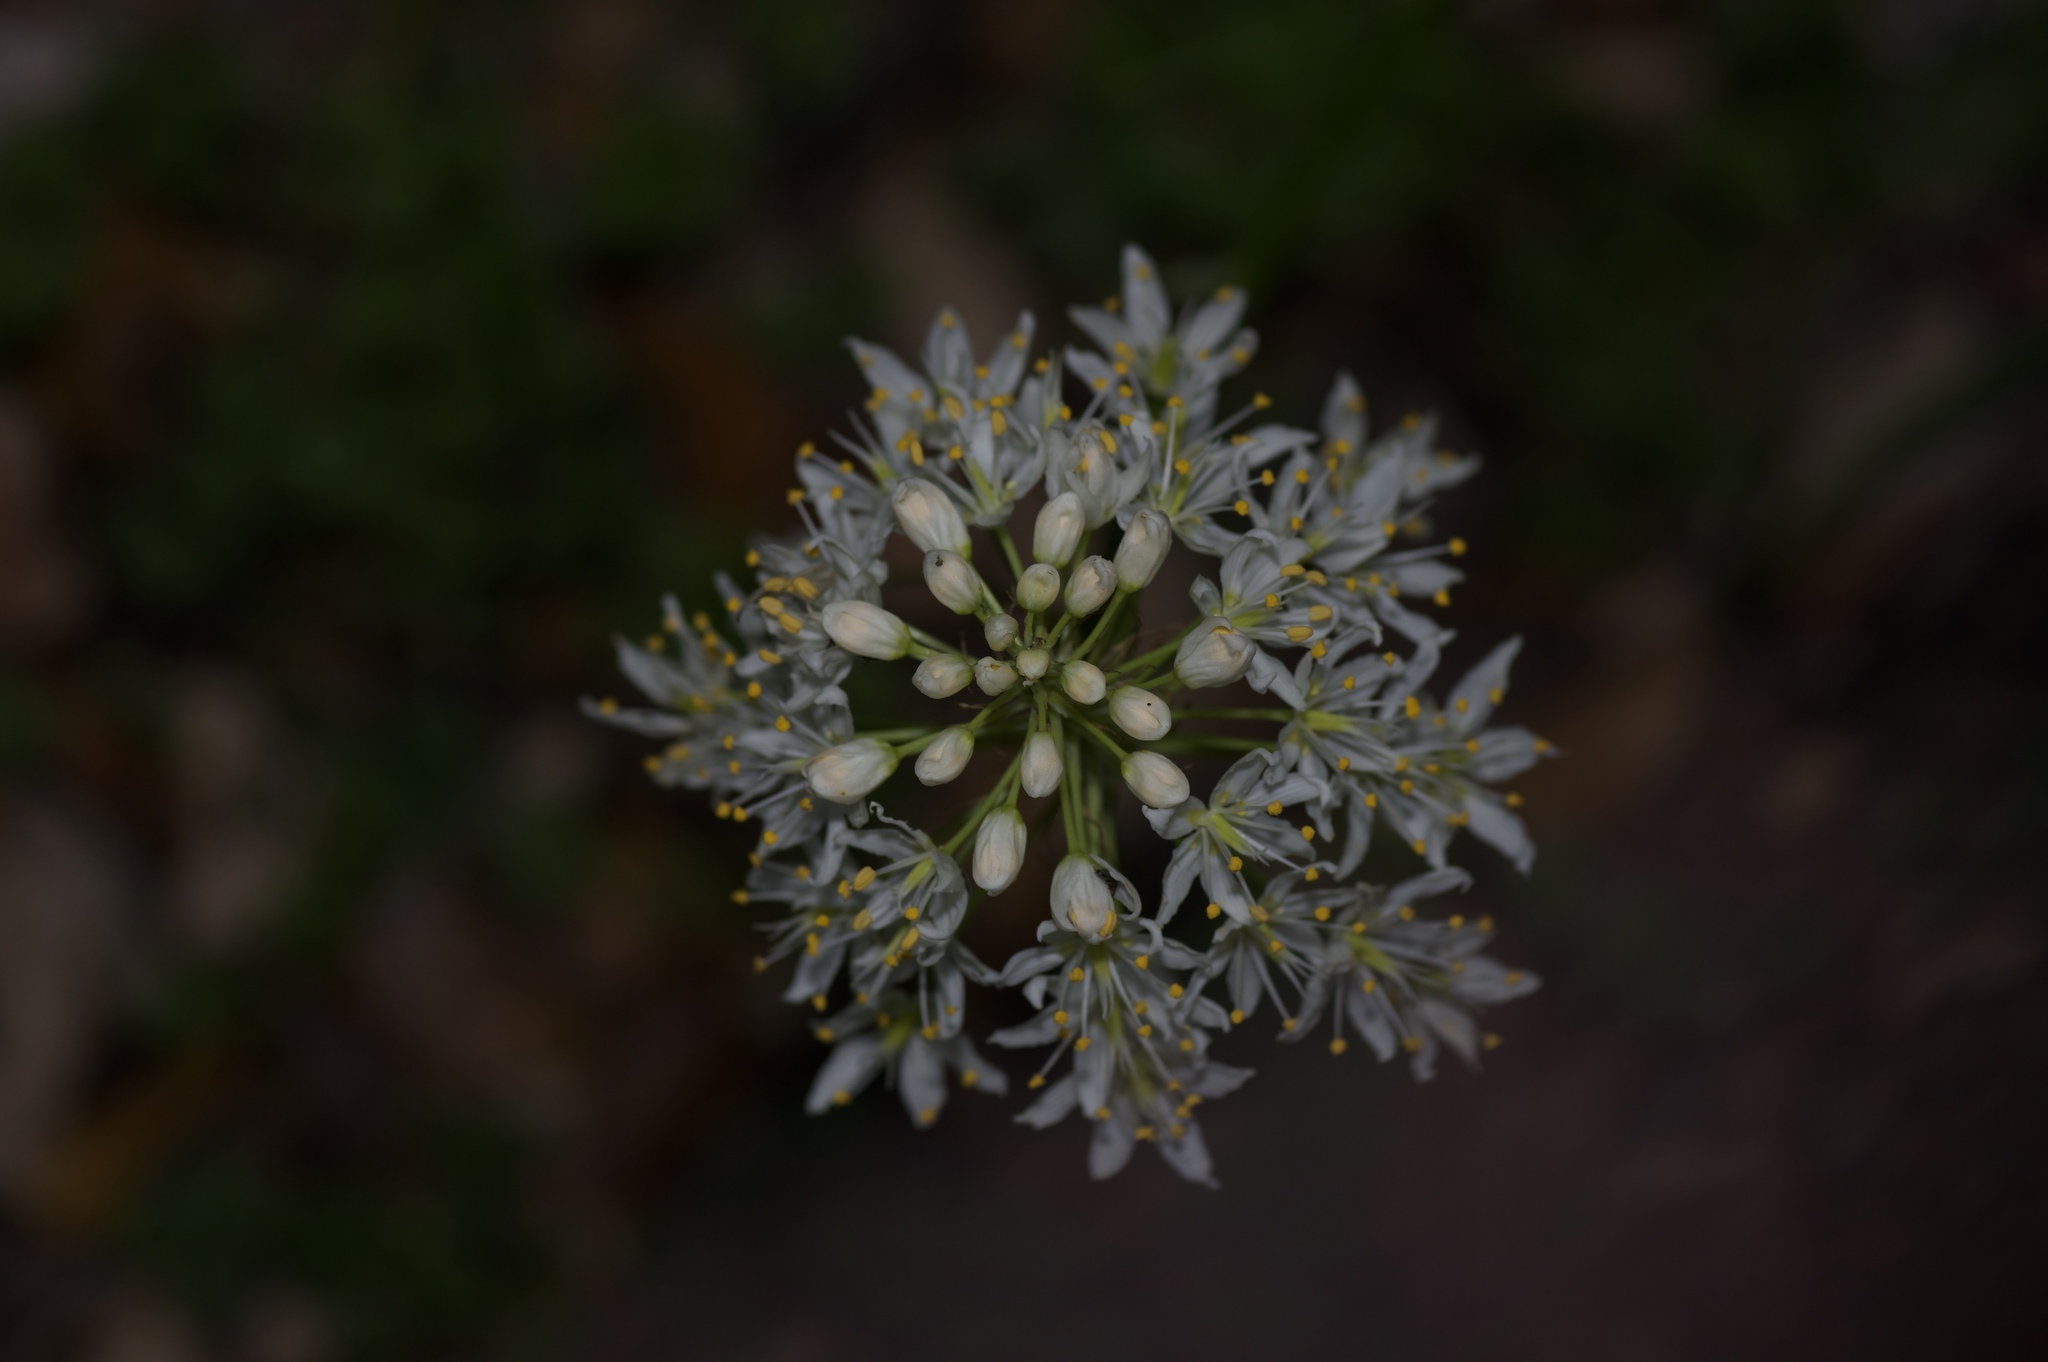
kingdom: Plantae
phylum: Tracheophyta
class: Liliopsida
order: Liliales
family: Melanthiaceae
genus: Toxicoscordion
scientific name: Toxicoscordion nuttallii
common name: Poison sego
